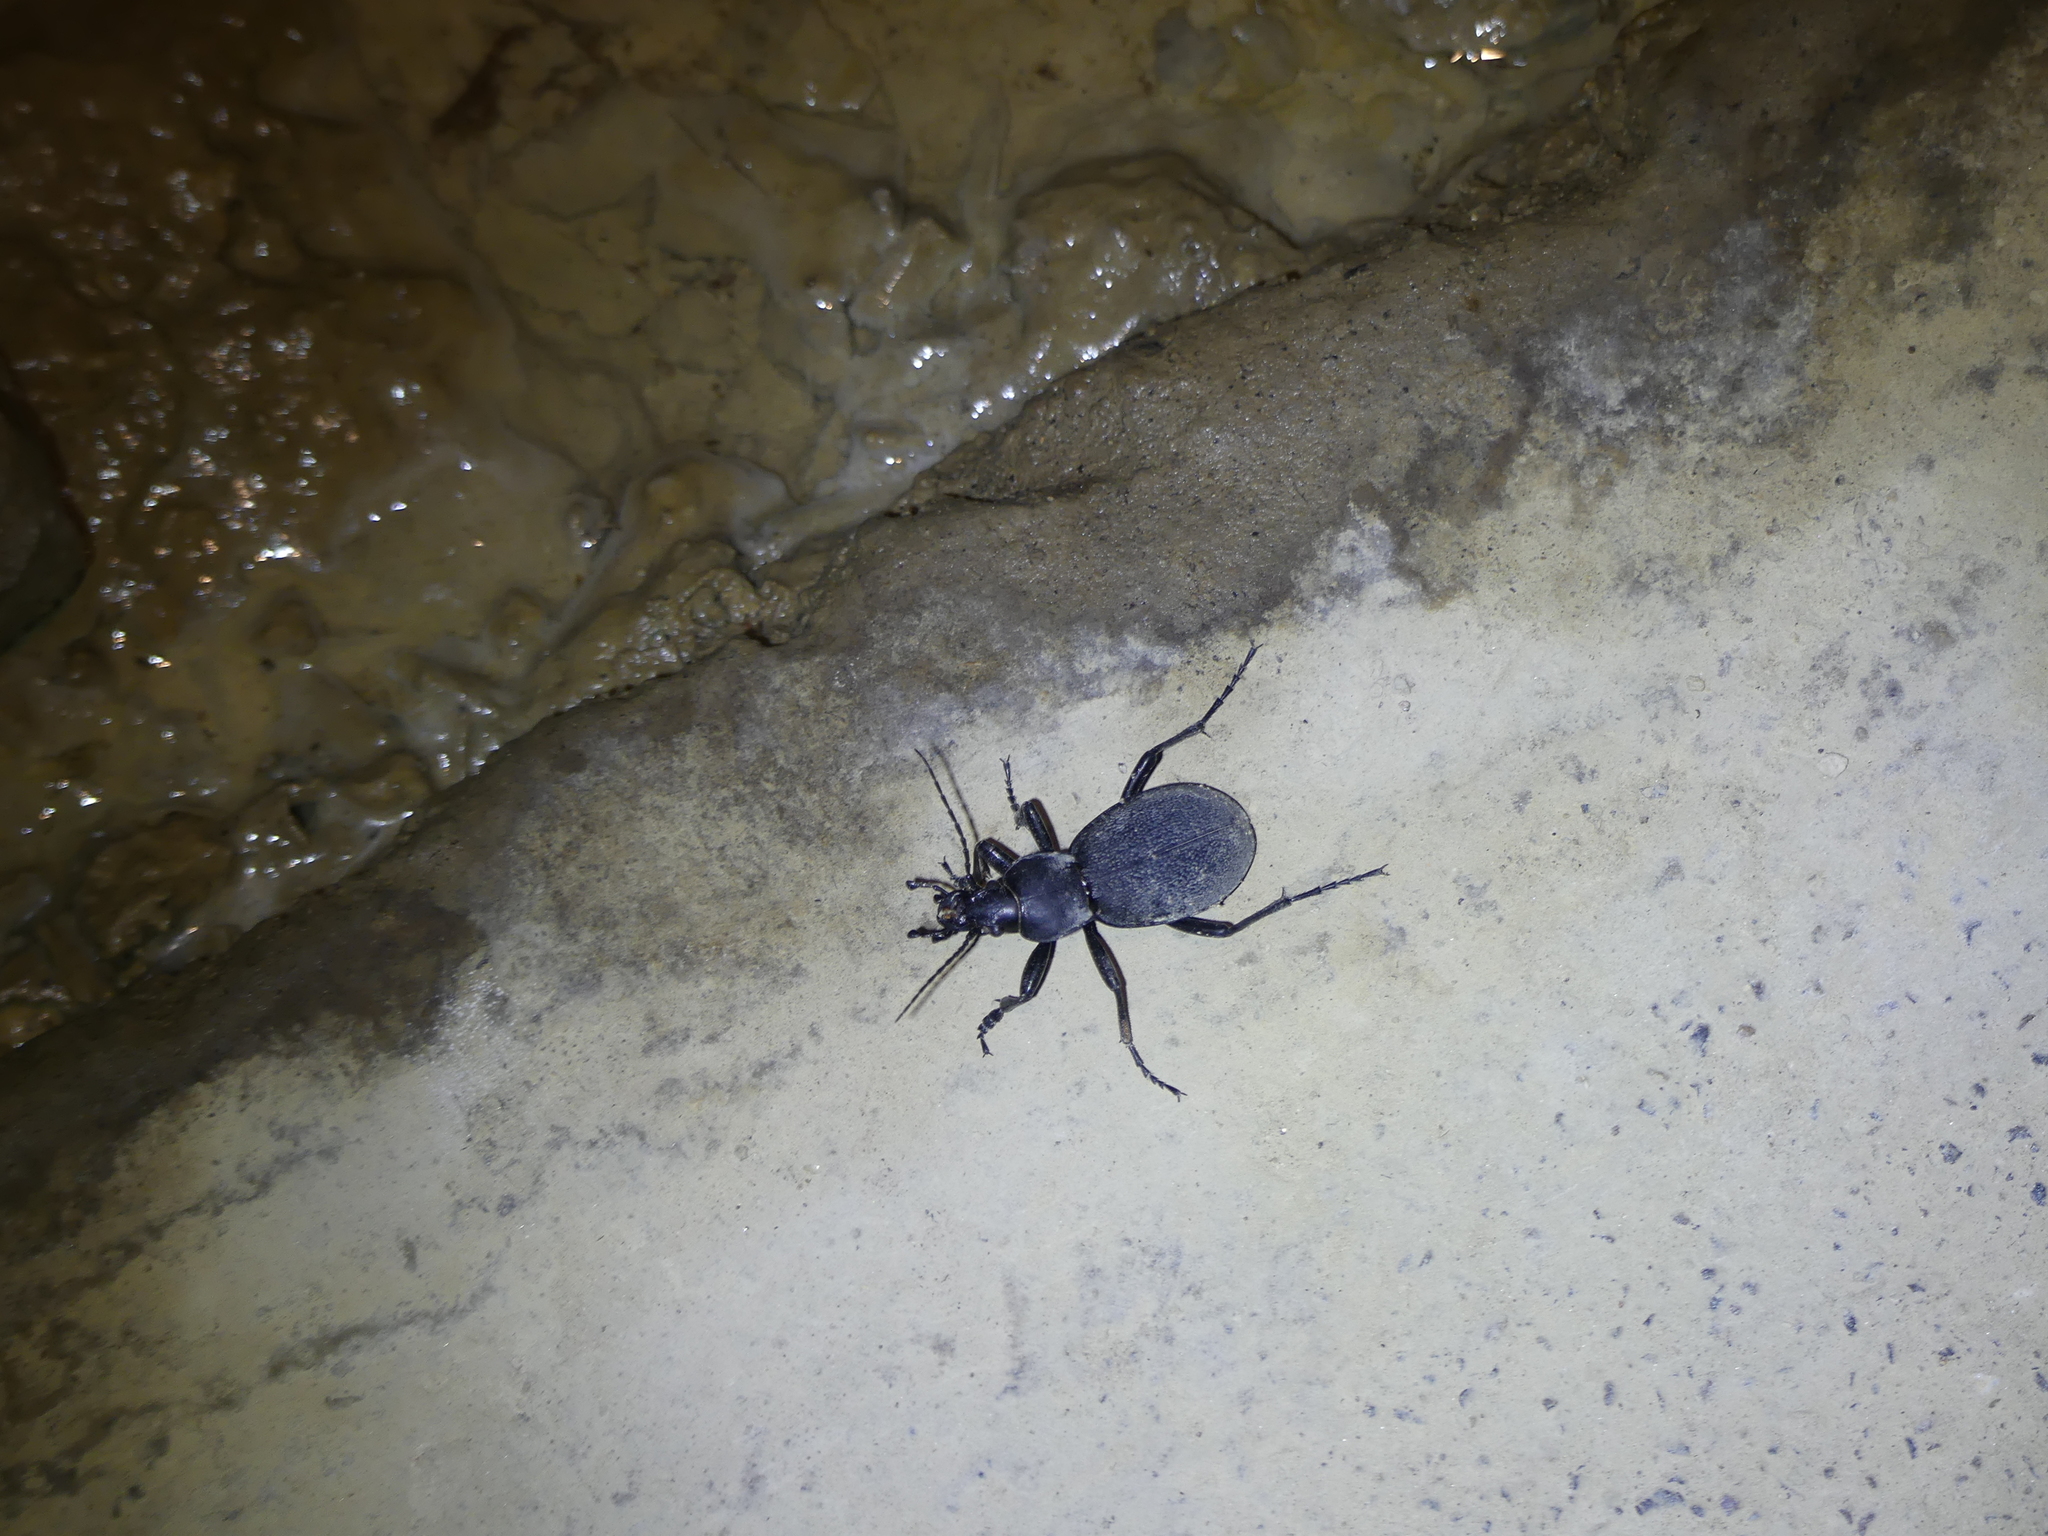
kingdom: Animalia
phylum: Arthropoda
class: Insecta
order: Coleoptera
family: Carabidae
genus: Carabus
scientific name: Carabus coriaceus
